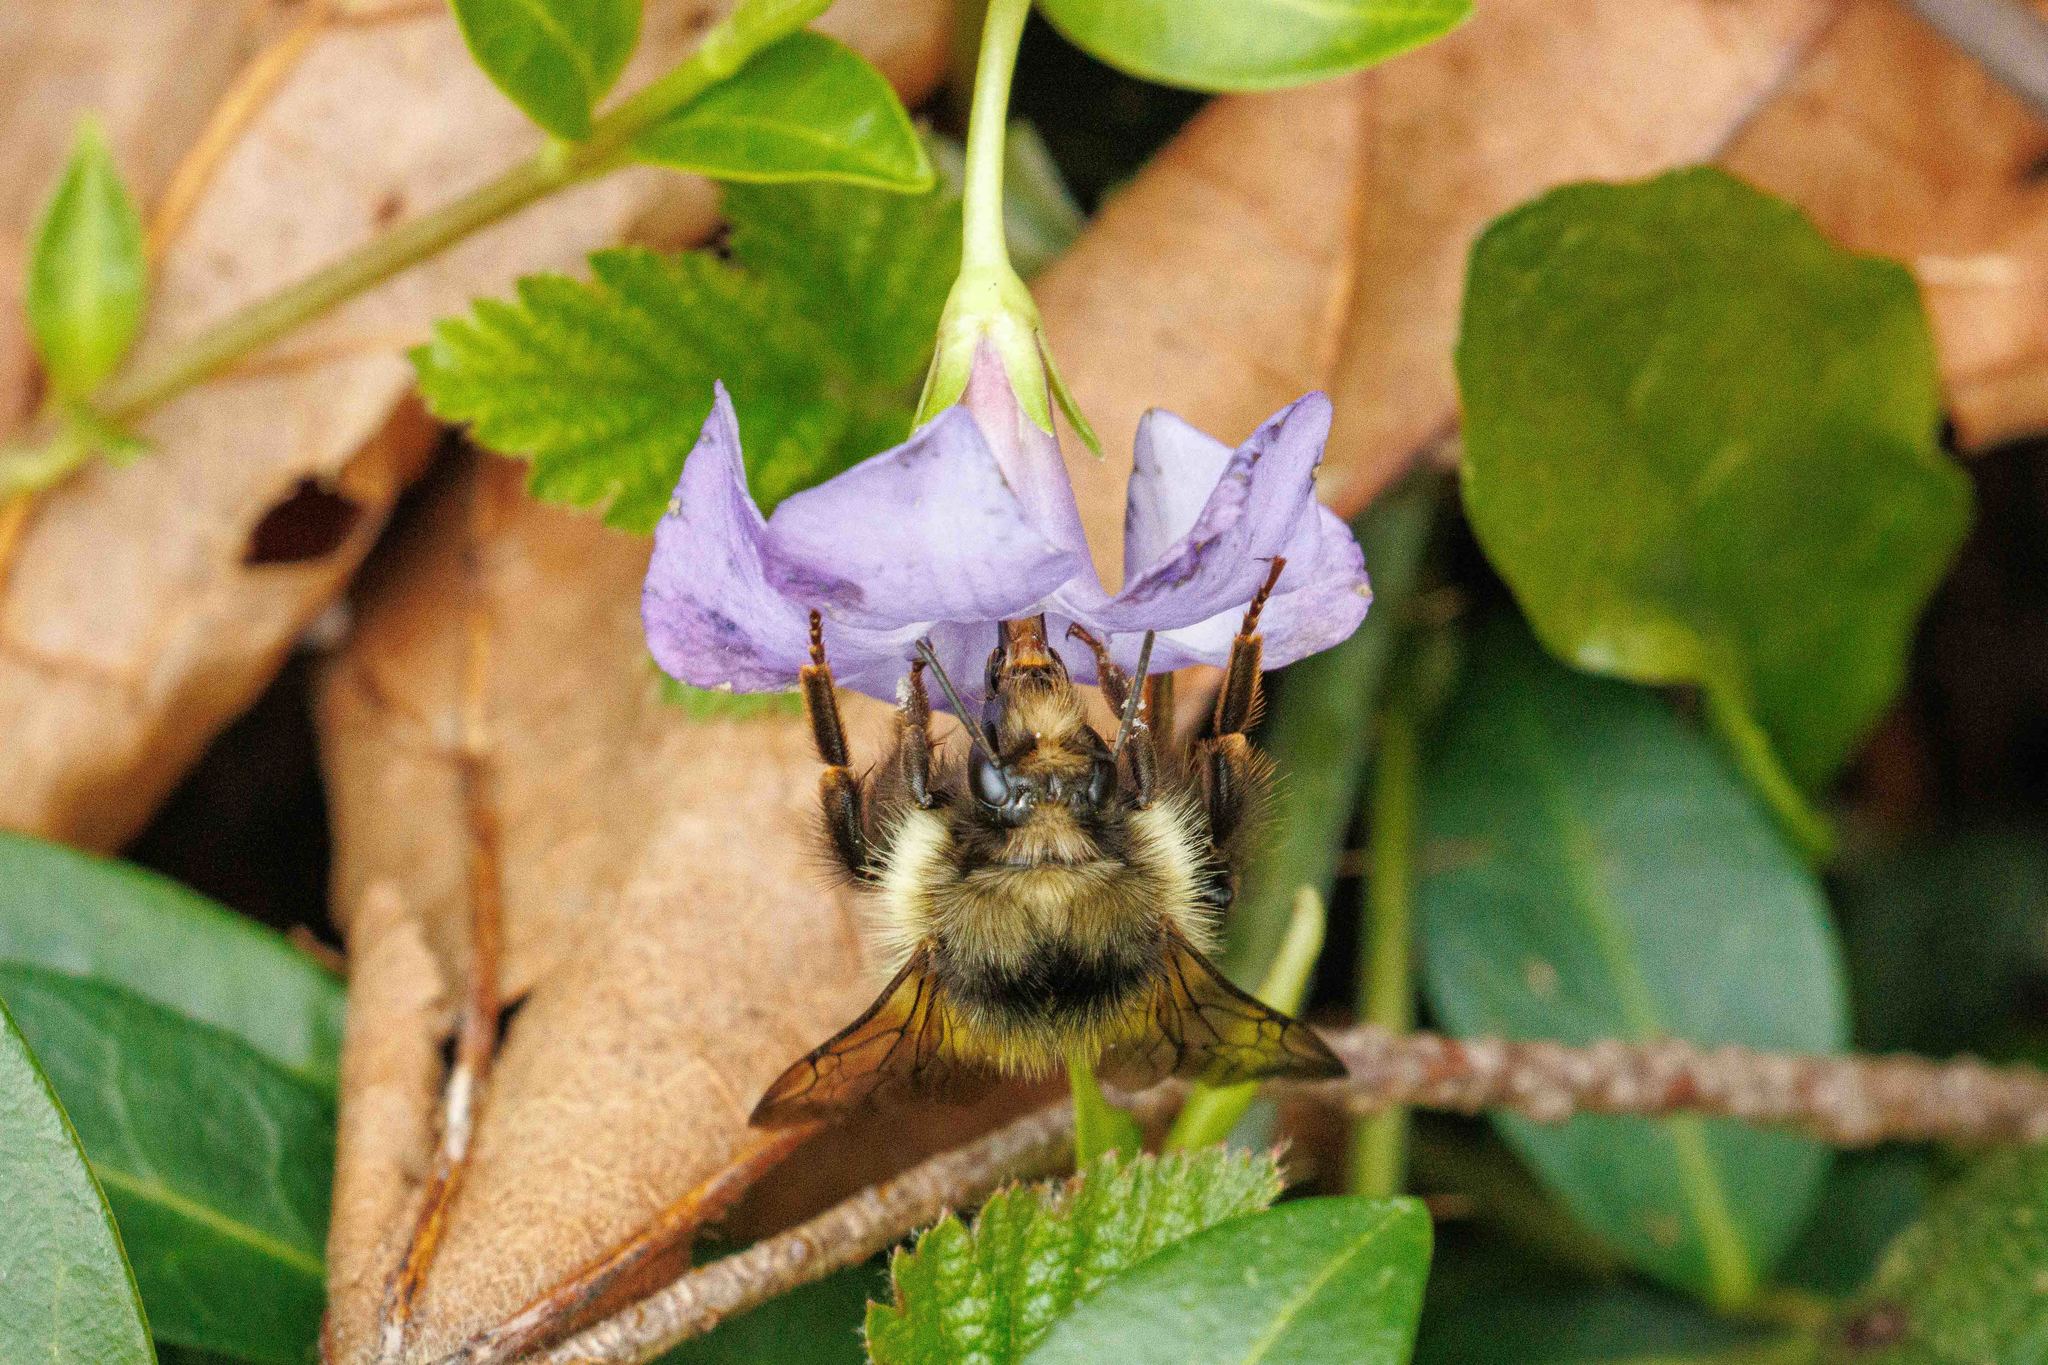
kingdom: Animalia
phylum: Arthropoda
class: Insecta
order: Hymenoptera
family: Apidae
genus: Bombus
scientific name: Bombus flavifrons
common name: Yellow head bumble bee
